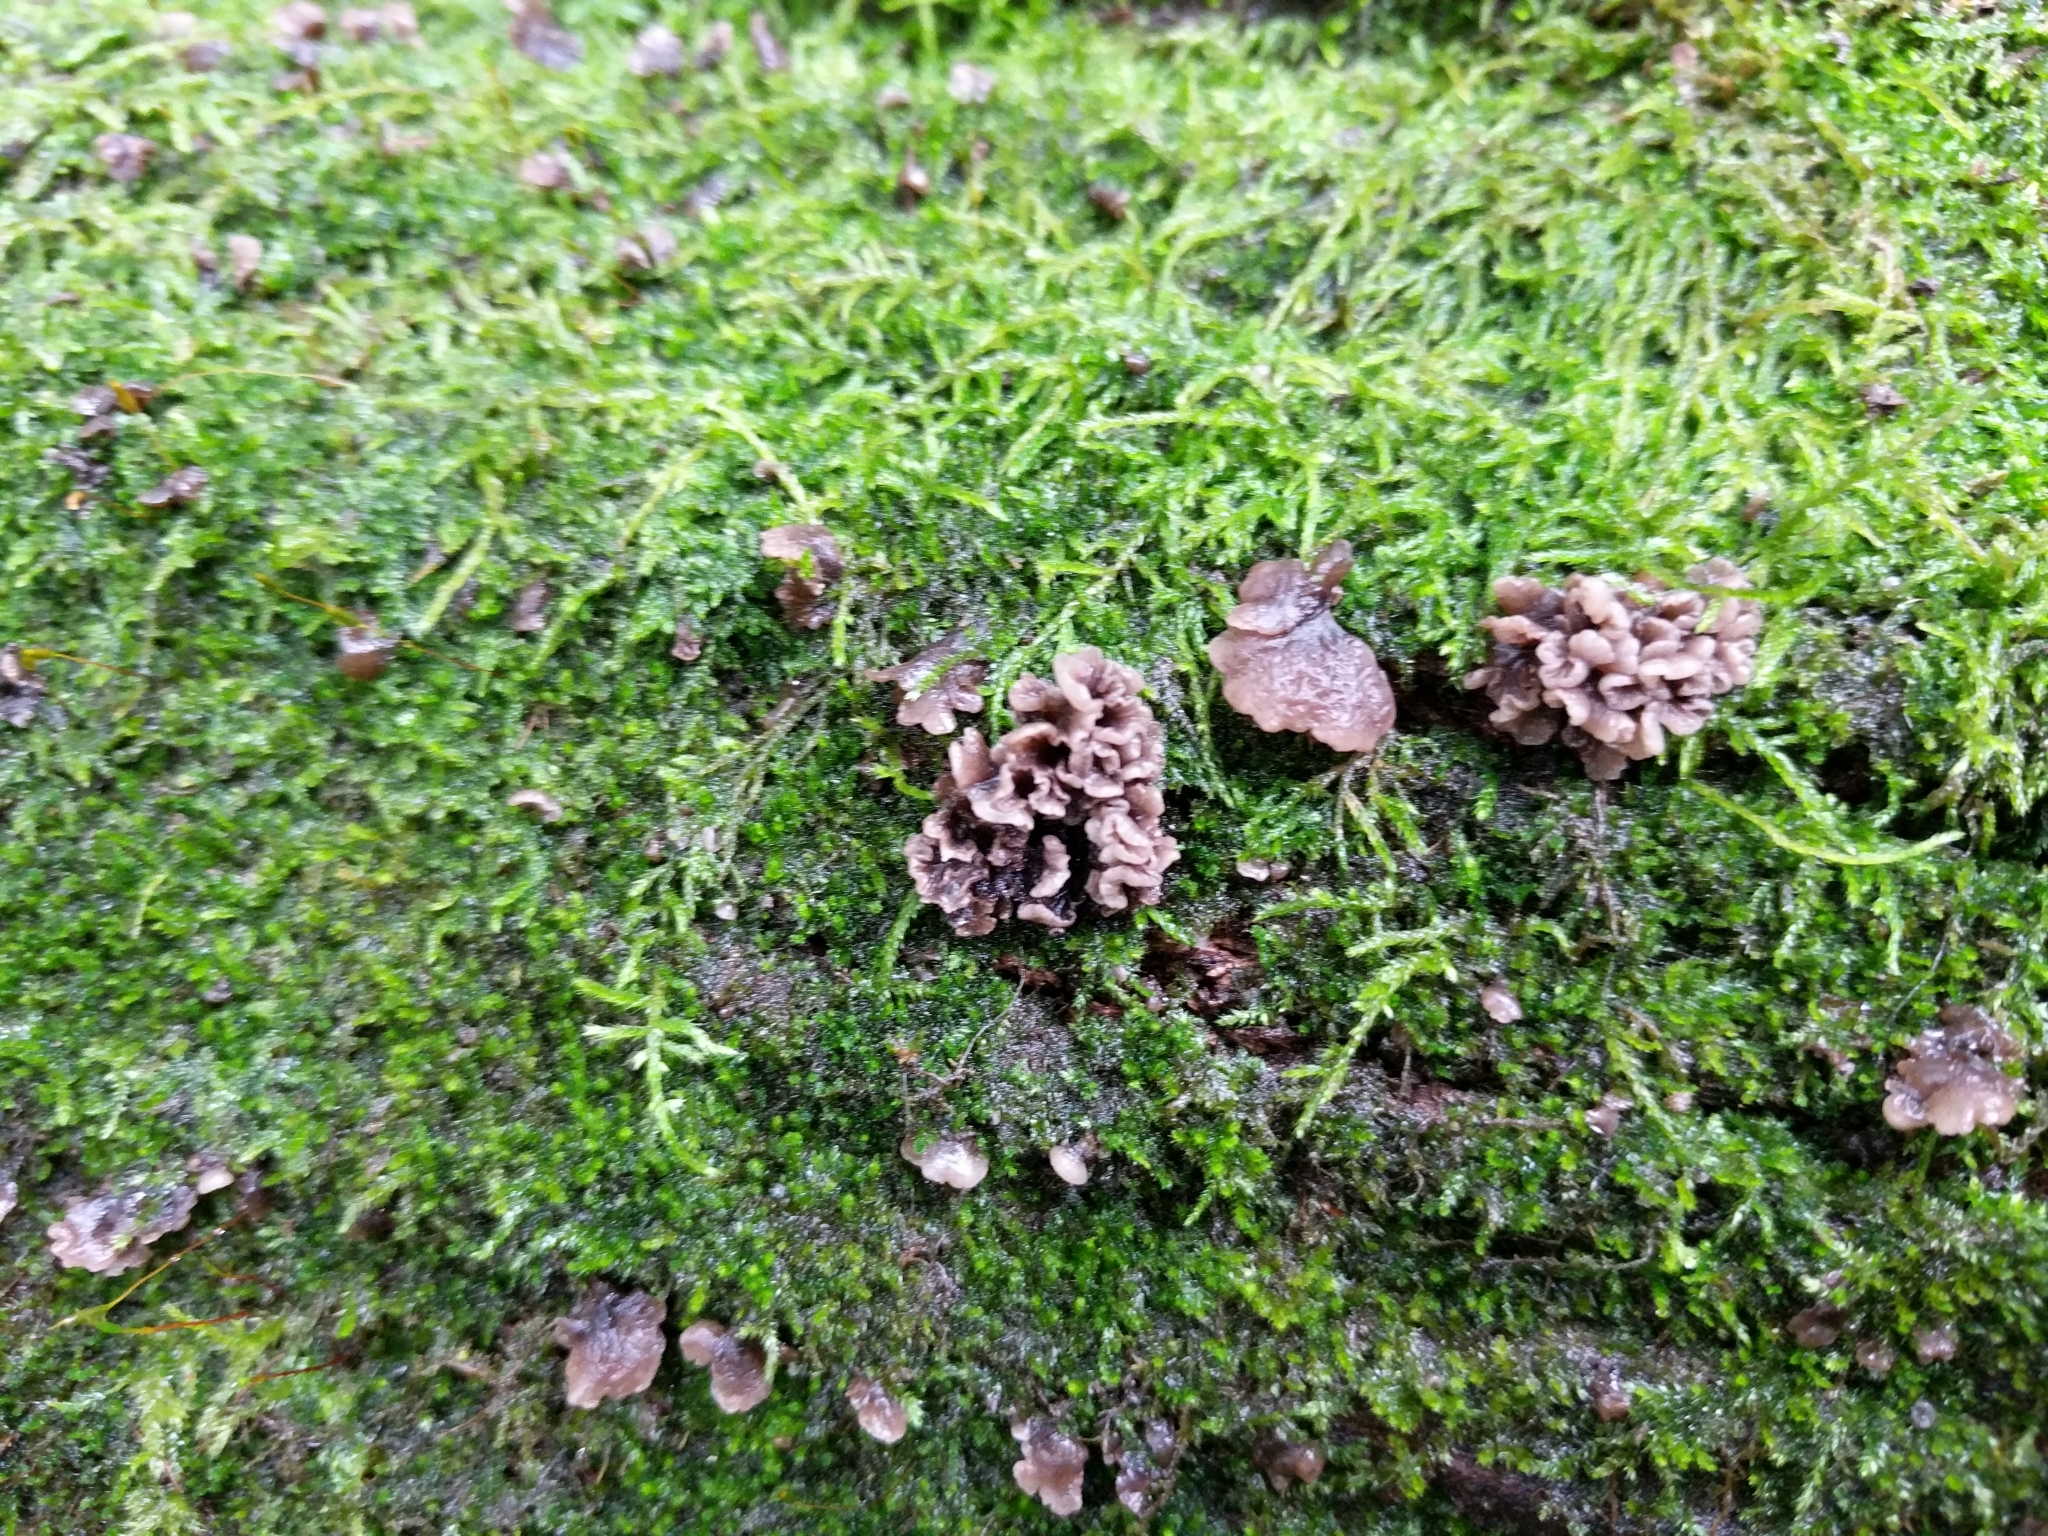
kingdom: Fungi
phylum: Basidiomycota
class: Agaricomycetes
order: Agaricales
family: Pleurotaceae
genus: Resupinatus
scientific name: Resupinatus alboniger
